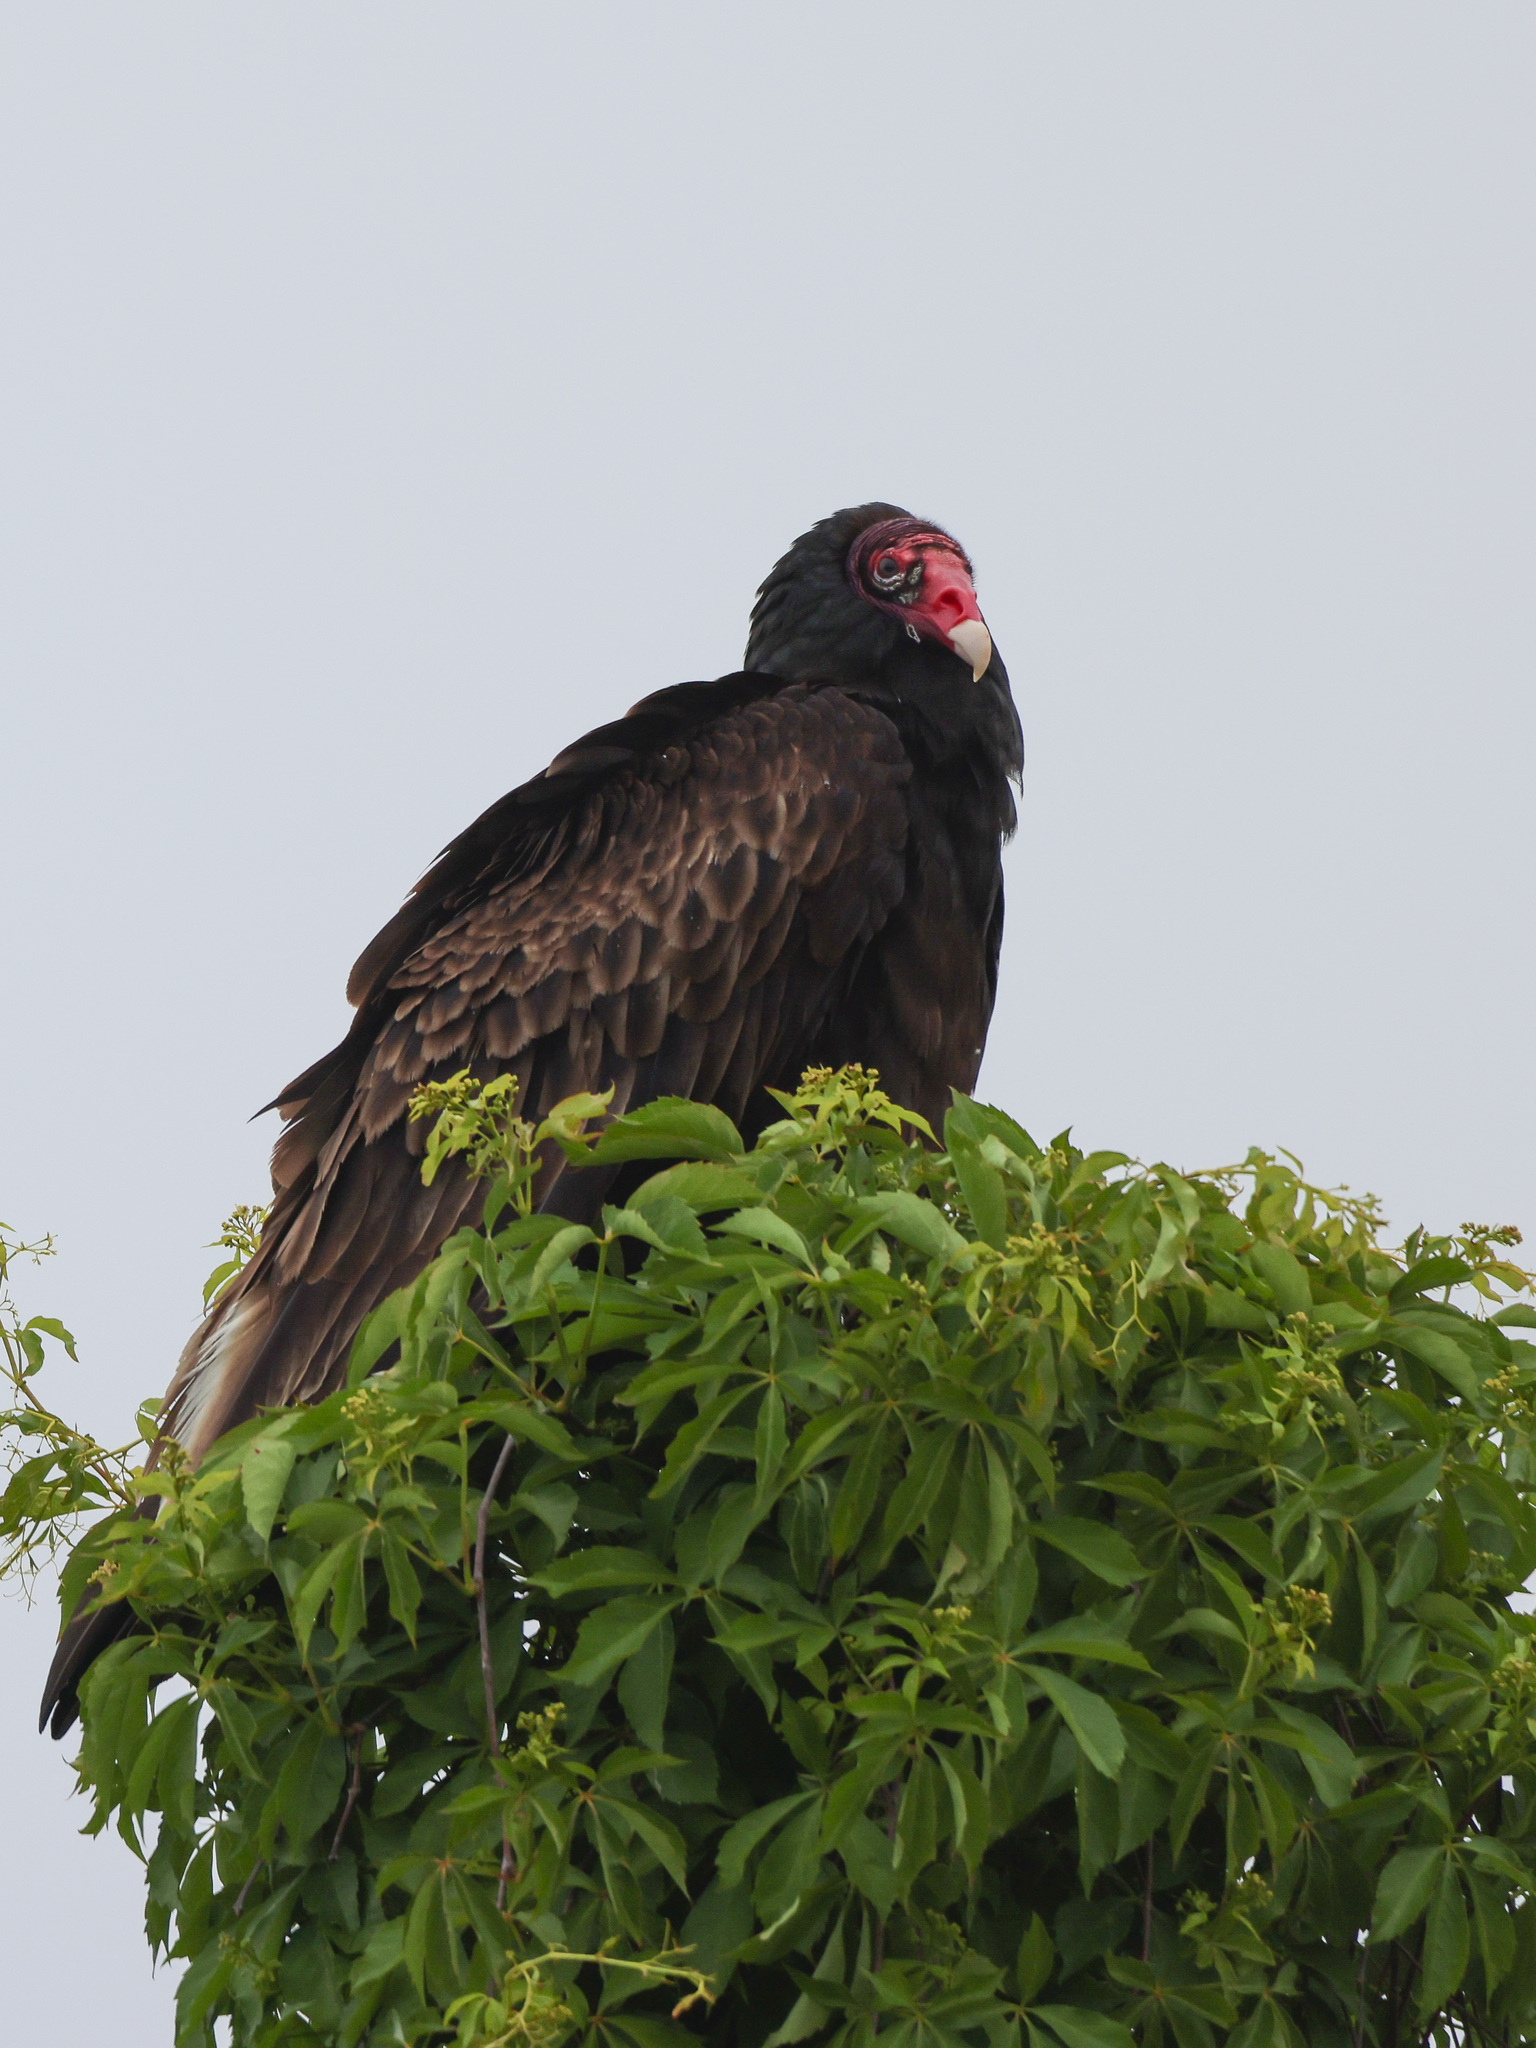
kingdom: Animalia
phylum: Chordata
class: Aves
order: Accipitriformes
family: Cathartidae
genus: Cathartes
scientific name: Cathartes aura
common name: Turkey vulture
